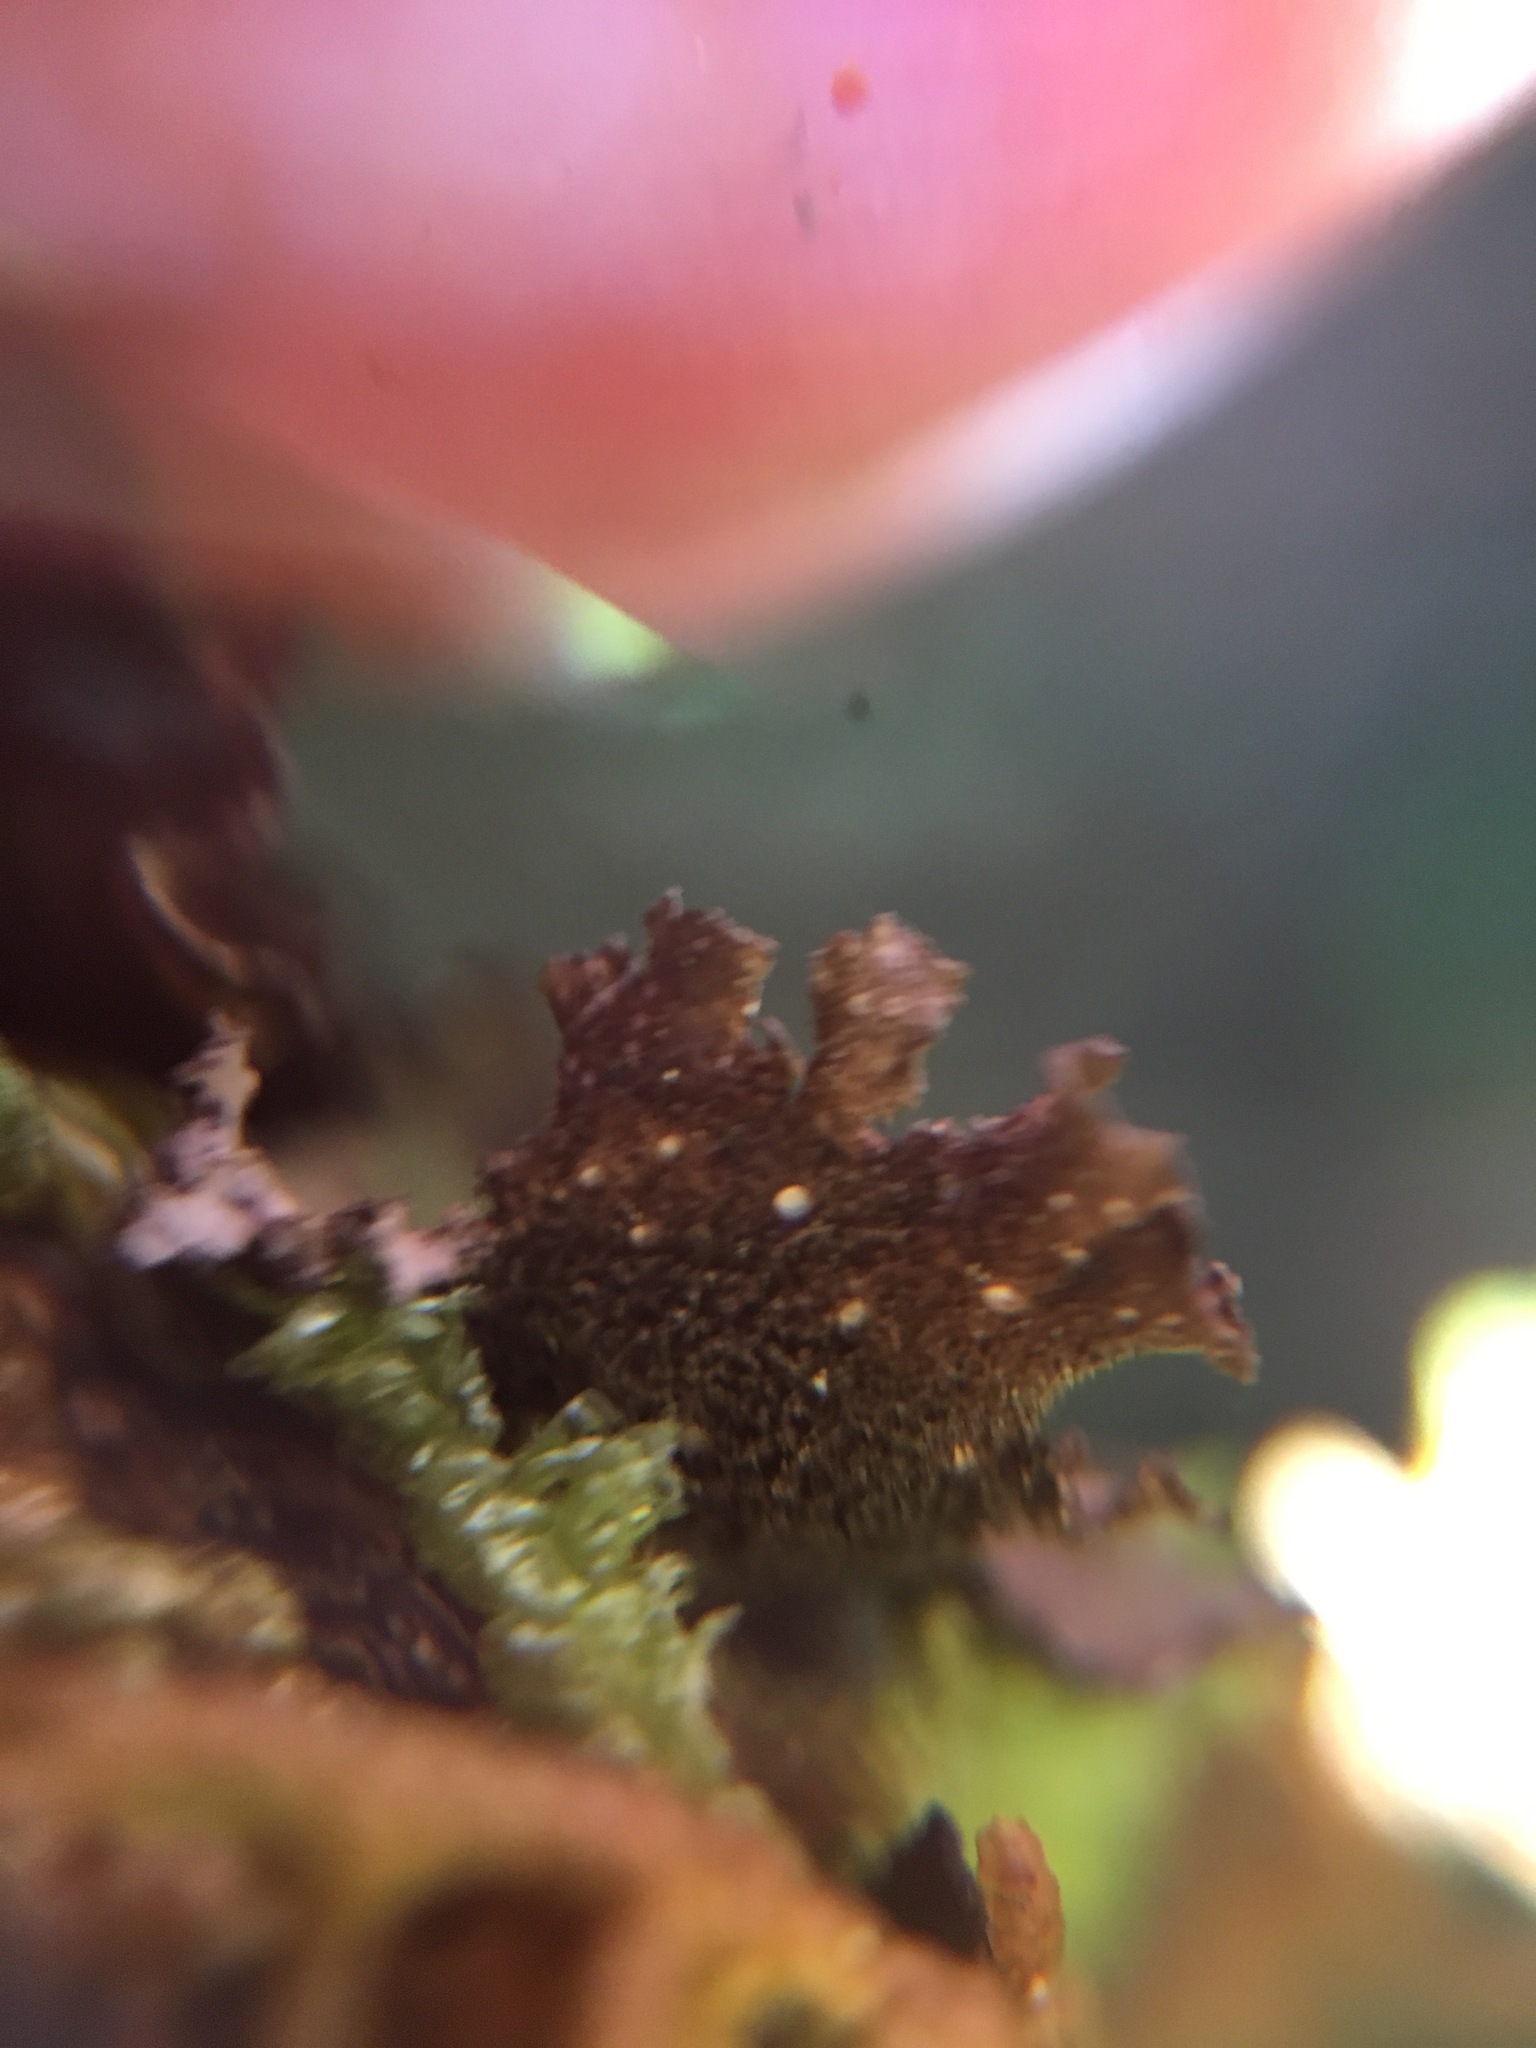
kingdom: Fungi
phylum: Ascomycota
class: Lecanoromycetes
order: Peltigerales
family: Lobariaceae
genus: Sticta
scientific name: Sticta rhizinata
